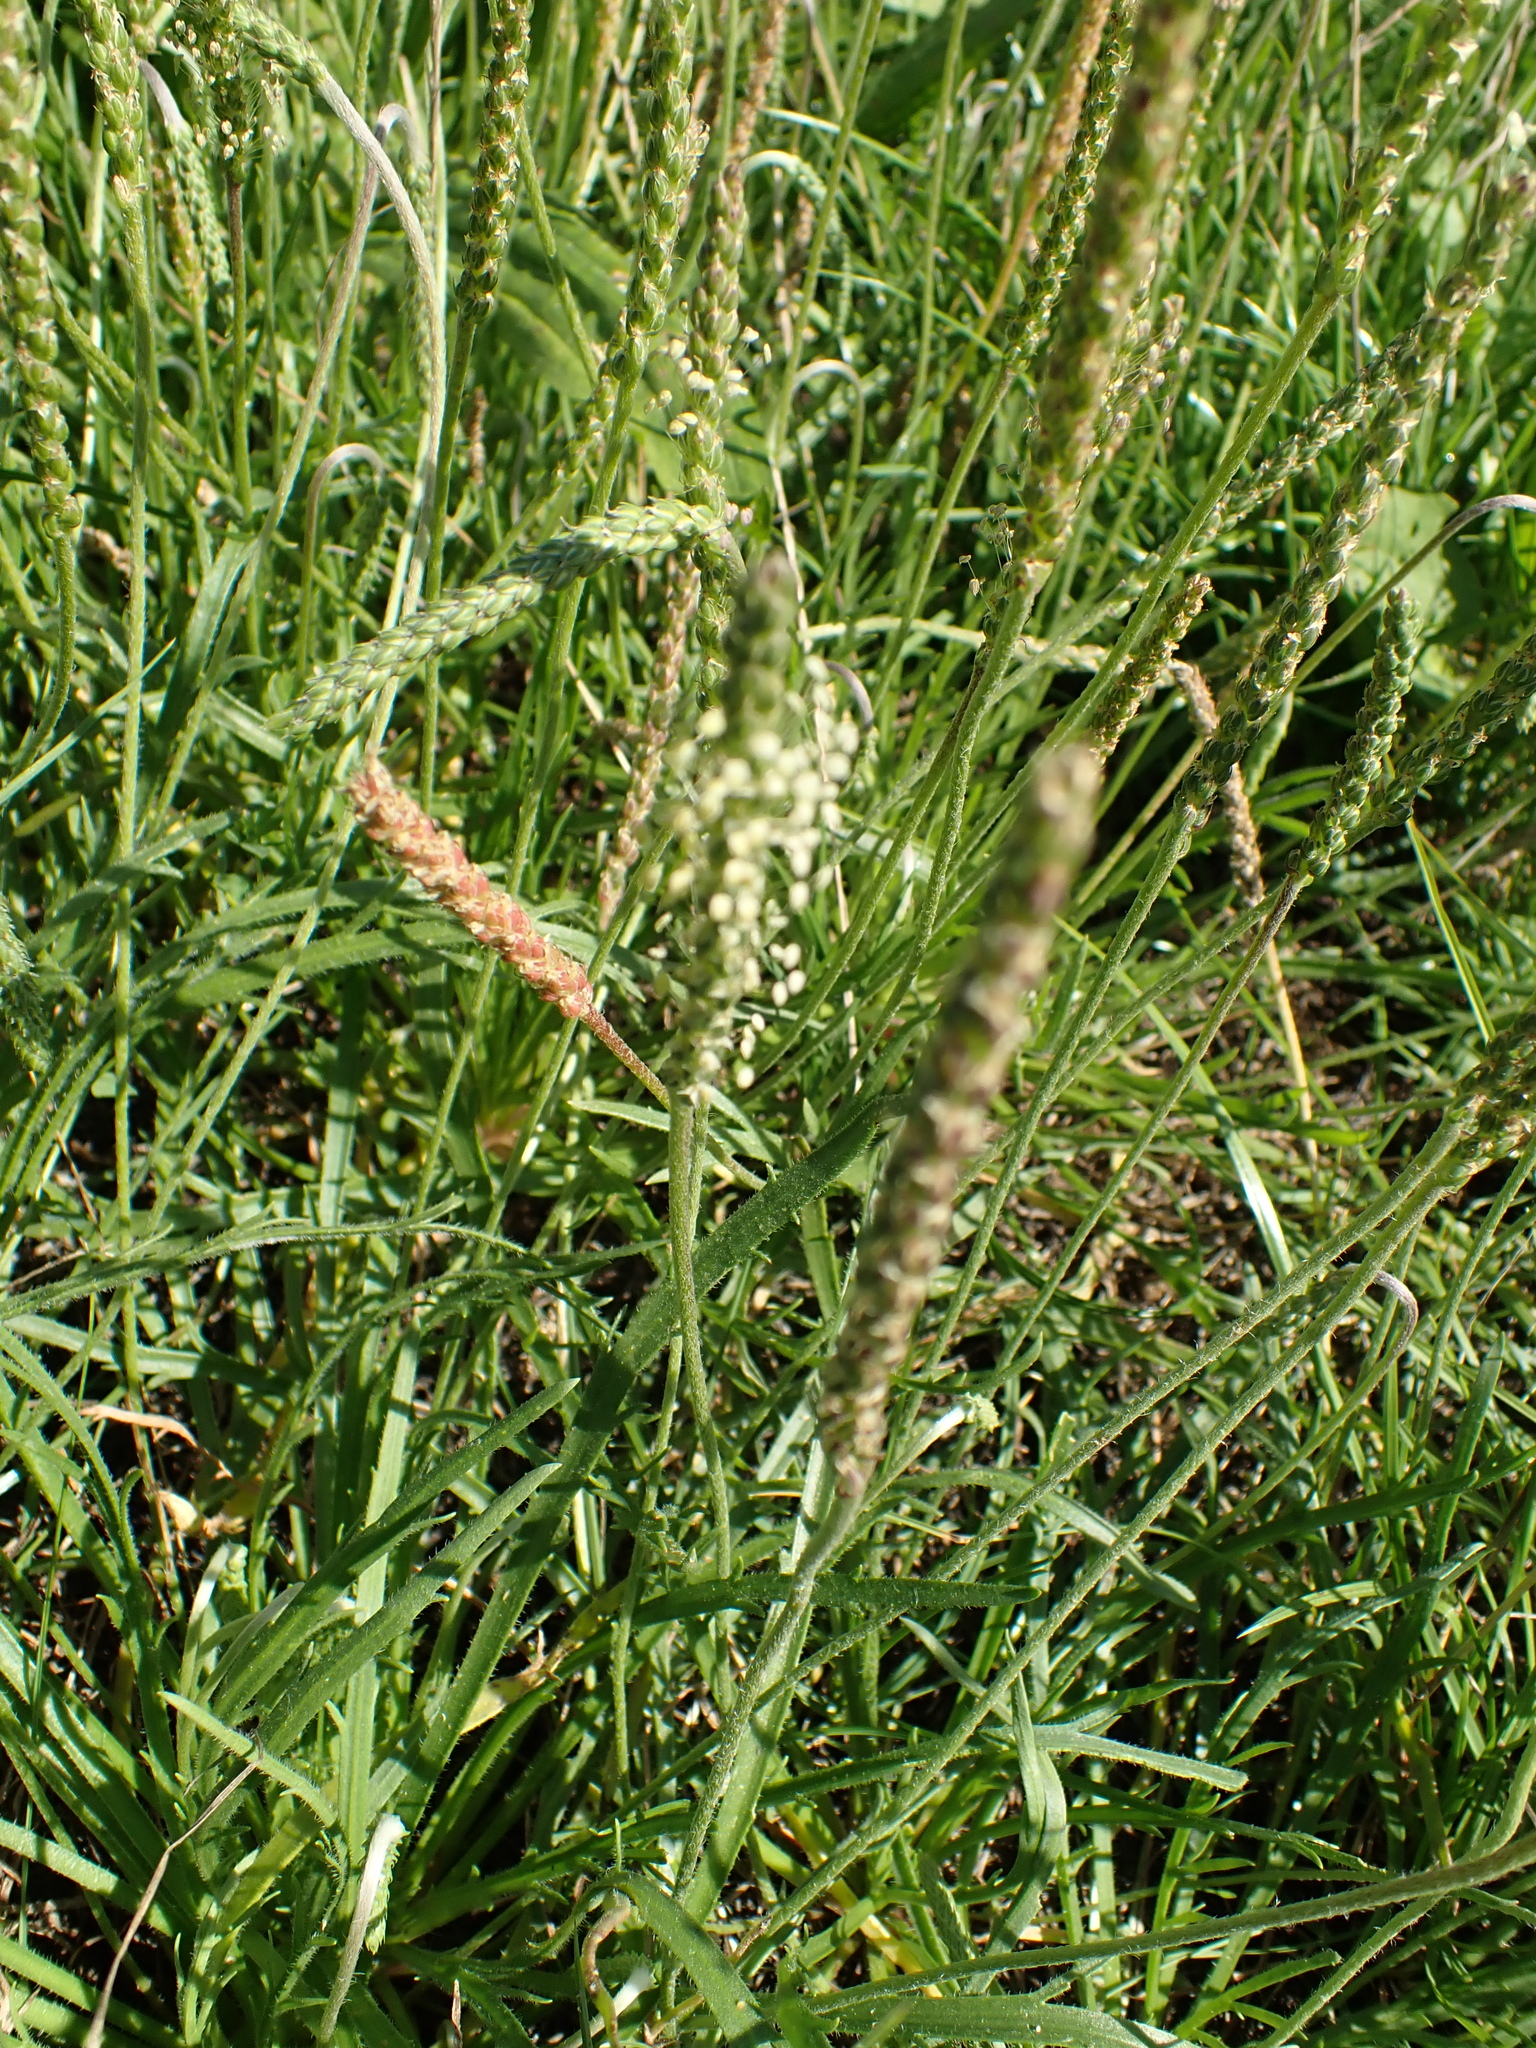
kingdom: Plantae
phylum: Tracheophyta
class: Magnoliopsida
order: Lamiales
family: Plantaginaceae
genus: Plantago
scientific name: Plantago coronopus
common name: Buck's-horn plantain
